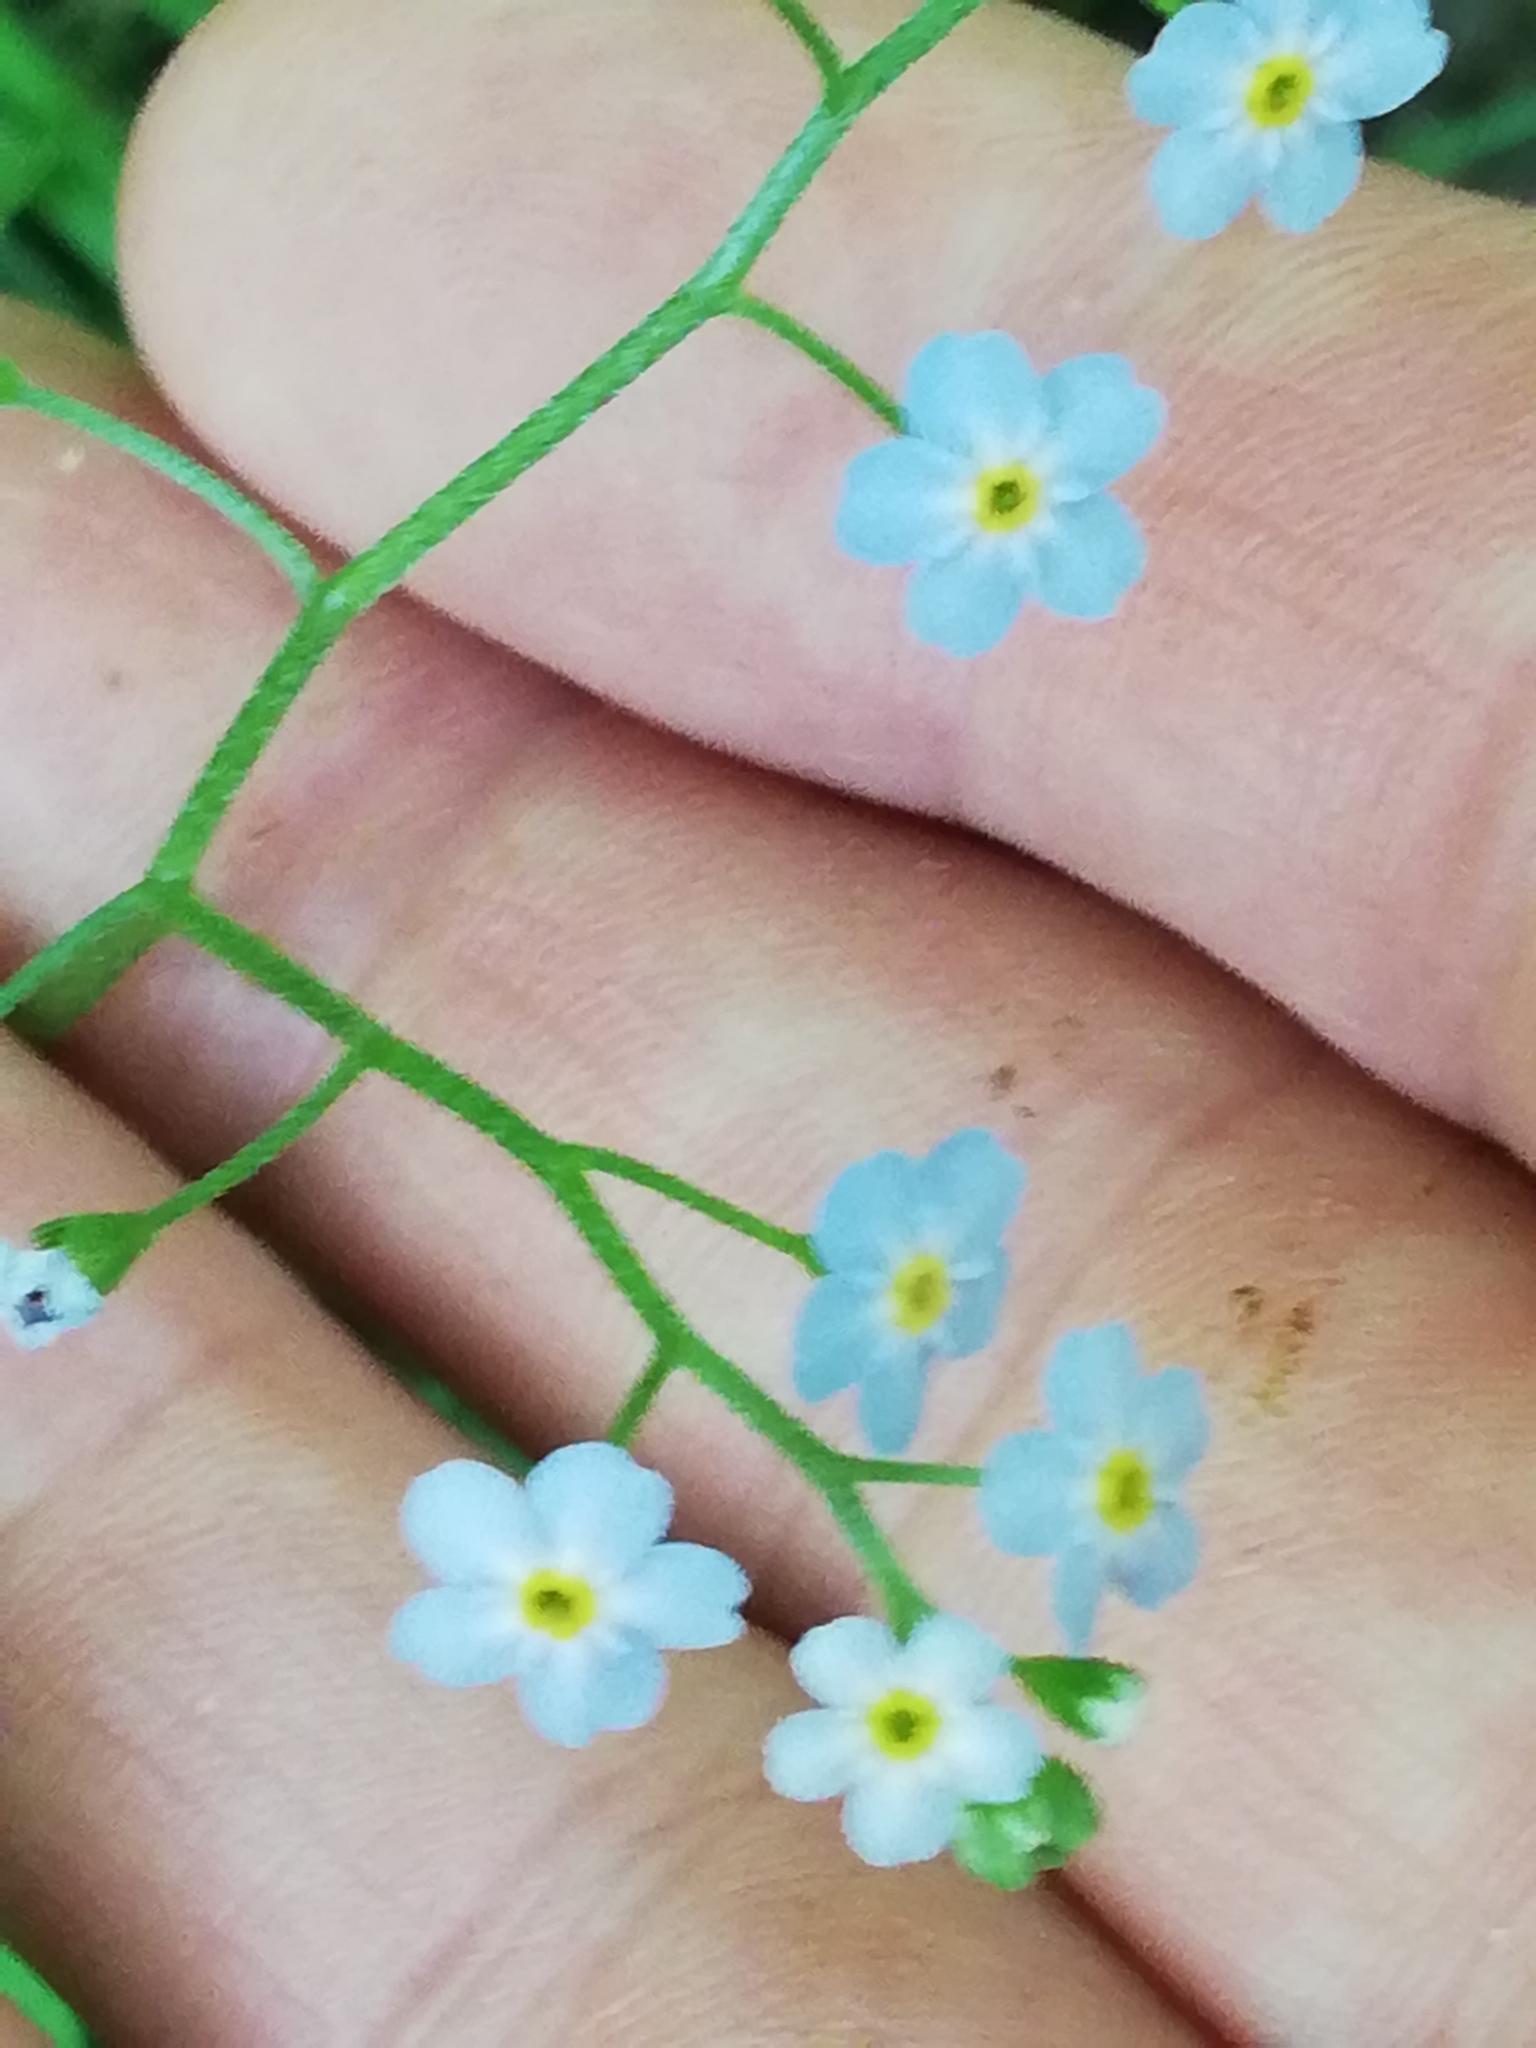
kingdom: Plantae
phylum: Tracheophyta
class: Magnoliopsida
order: Boraginales
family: Boraginaceae
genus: Myosotis
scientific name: Myosotis scorpioides
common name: Water forget-me-not
